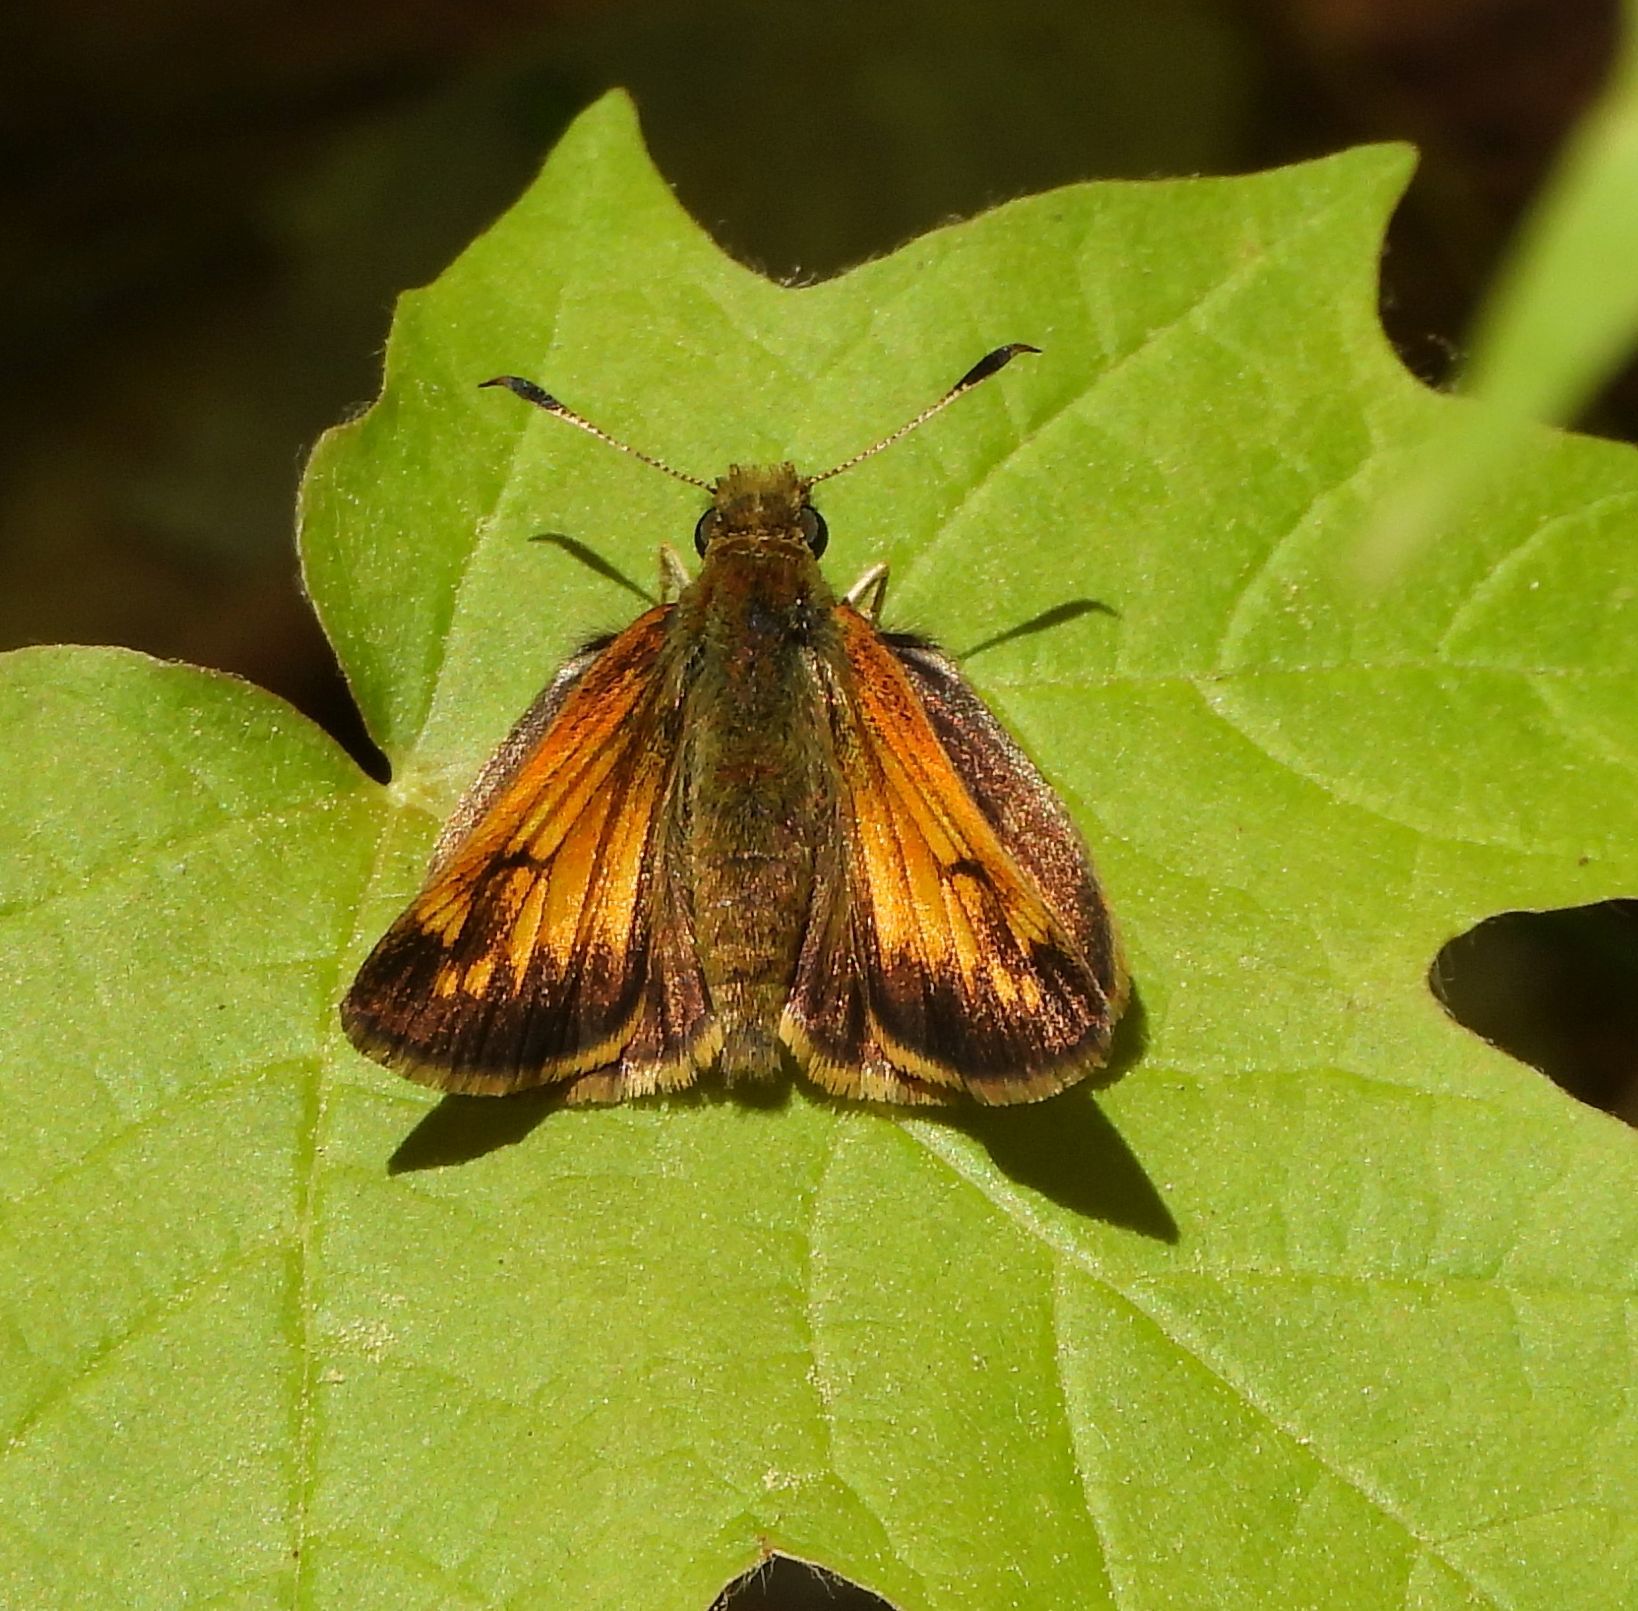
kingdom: Animalia
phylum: Arthropoda
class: Insecta
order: Lepidoptera
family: Hesperiidae
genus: Lon
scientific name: Lon hobomok
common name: Hobomok skipper
